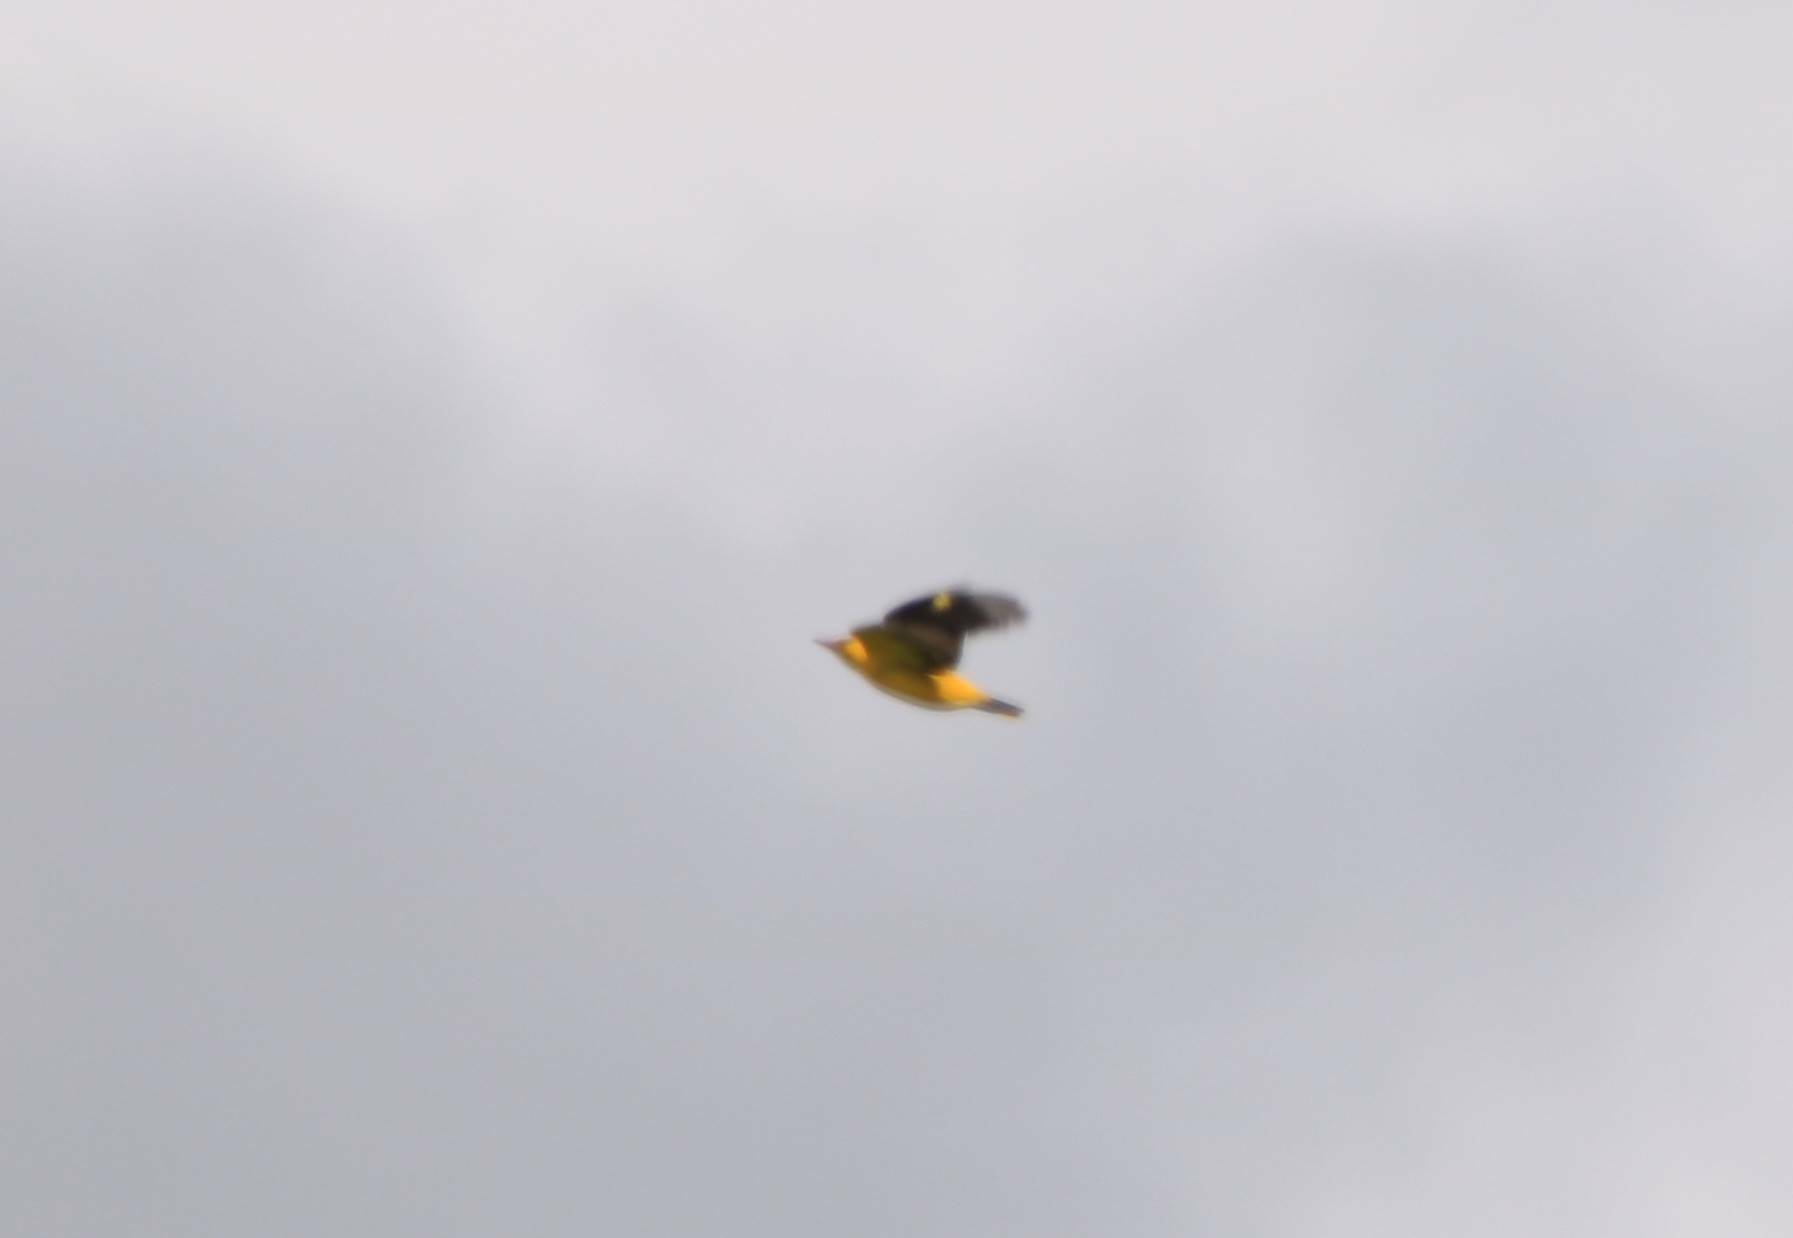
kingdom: Animalia
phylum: Chordata
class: Aves
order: Passeriformes
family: Oriolidae
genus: Oriolus
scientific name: Oriolus oriolus
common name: Eurasian golden oriole
